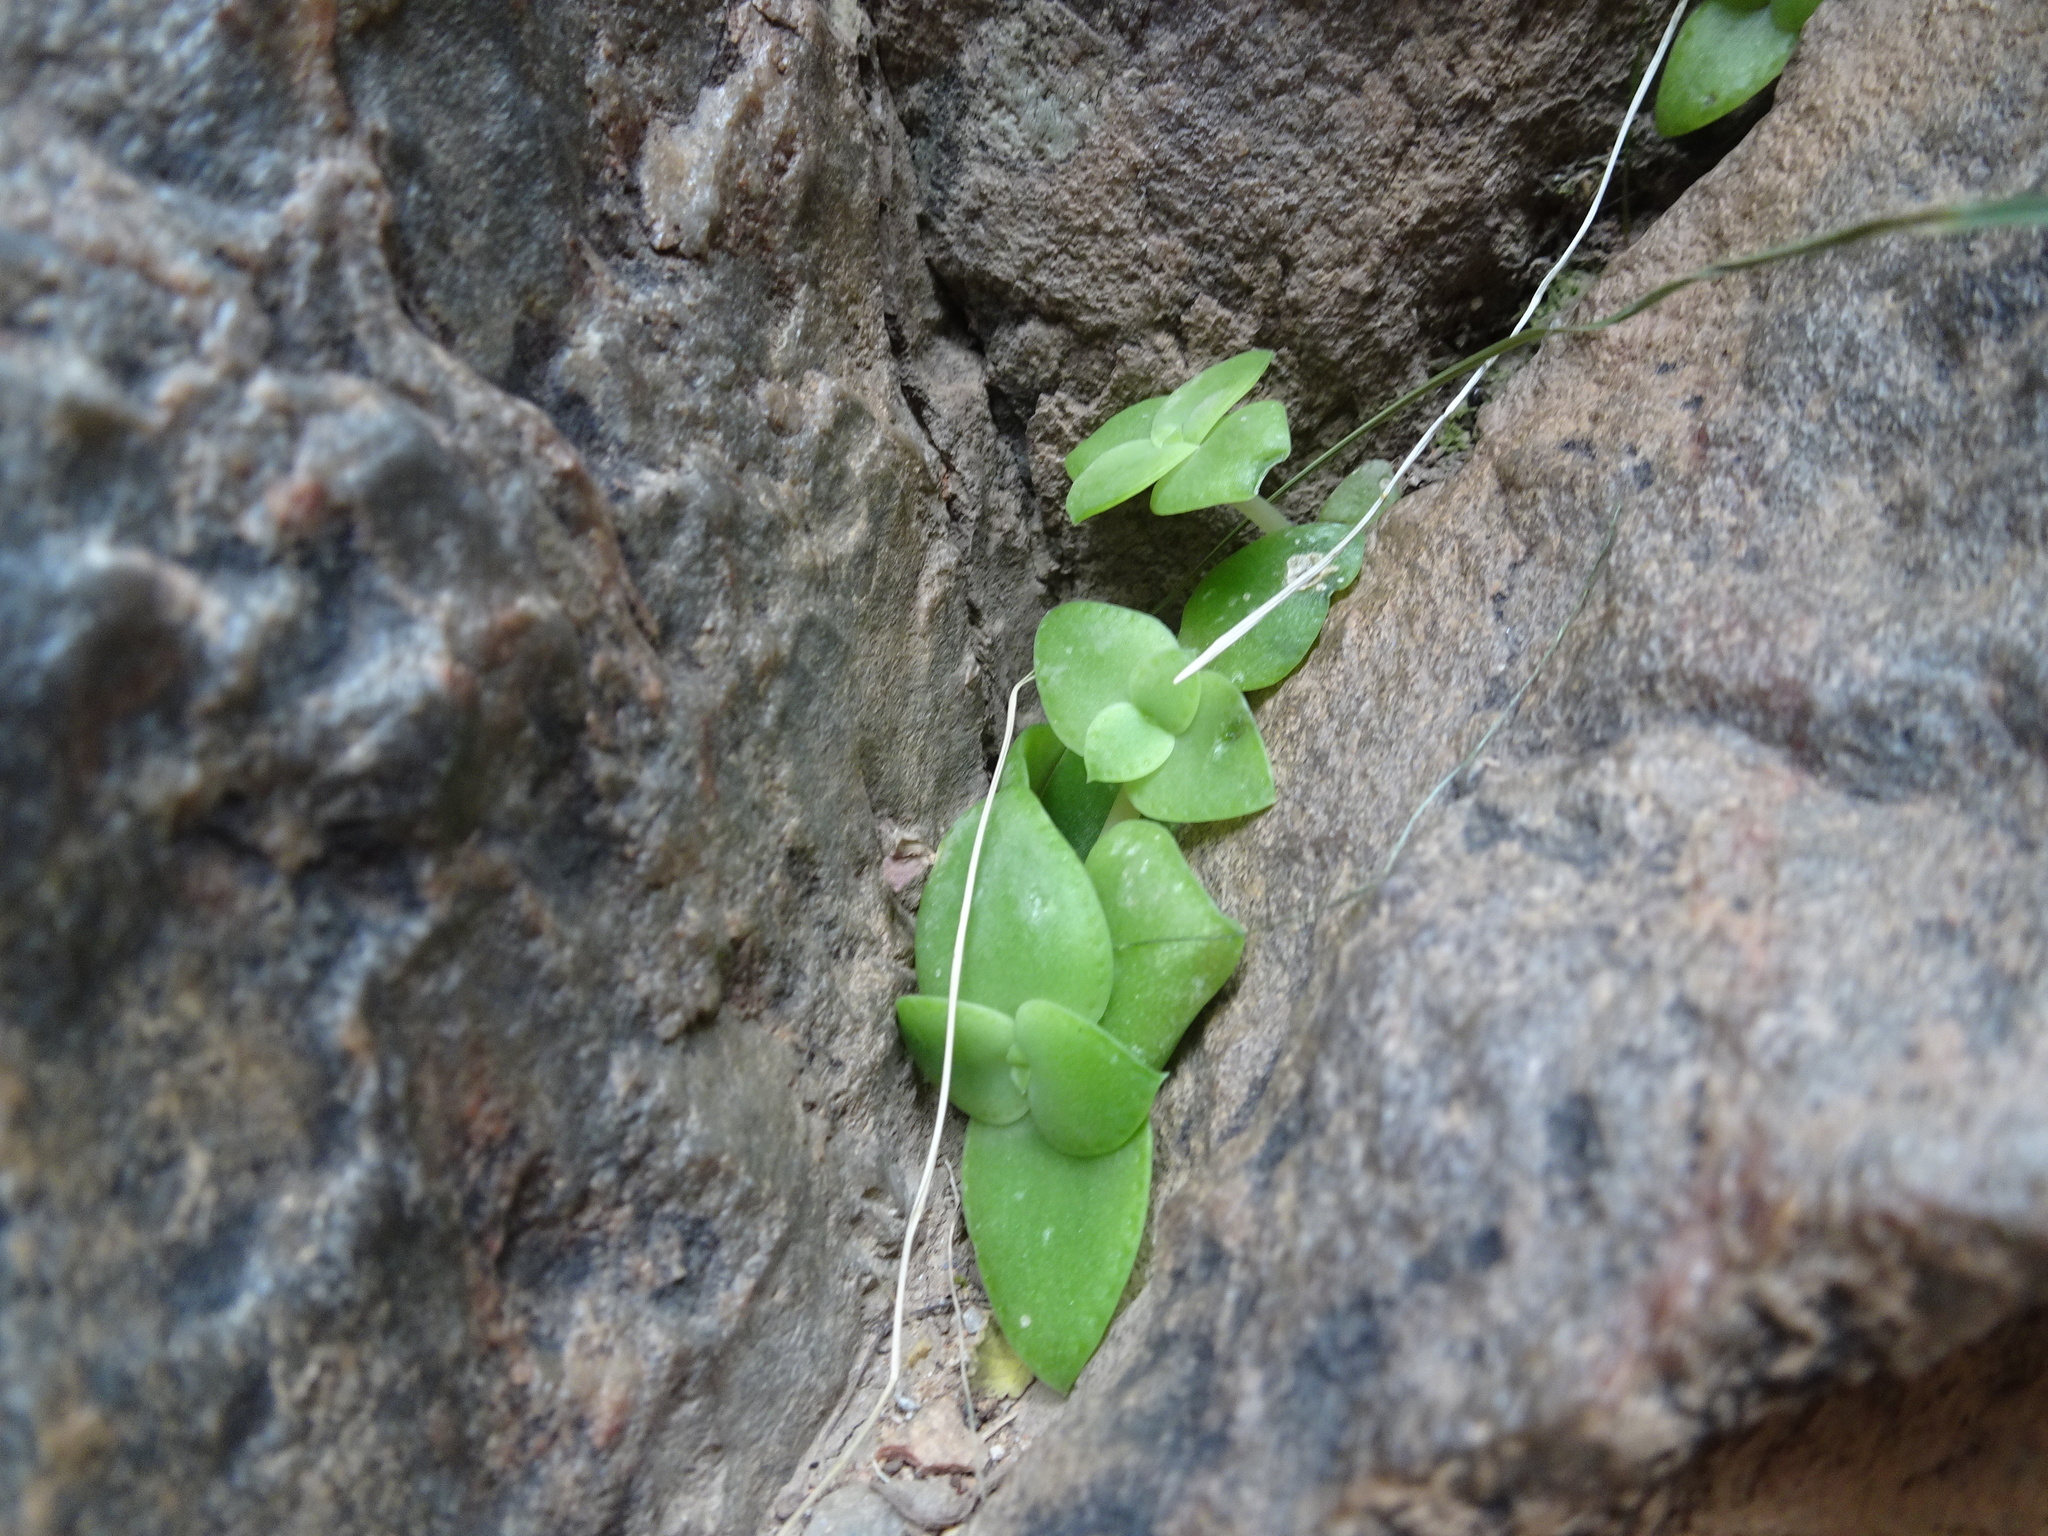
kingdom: Plantae
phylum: Tracheophyta
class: Magnoliopsida
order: Saxifragales
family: Crassulaceae
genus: Crassula
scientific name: Crassula pellucida
